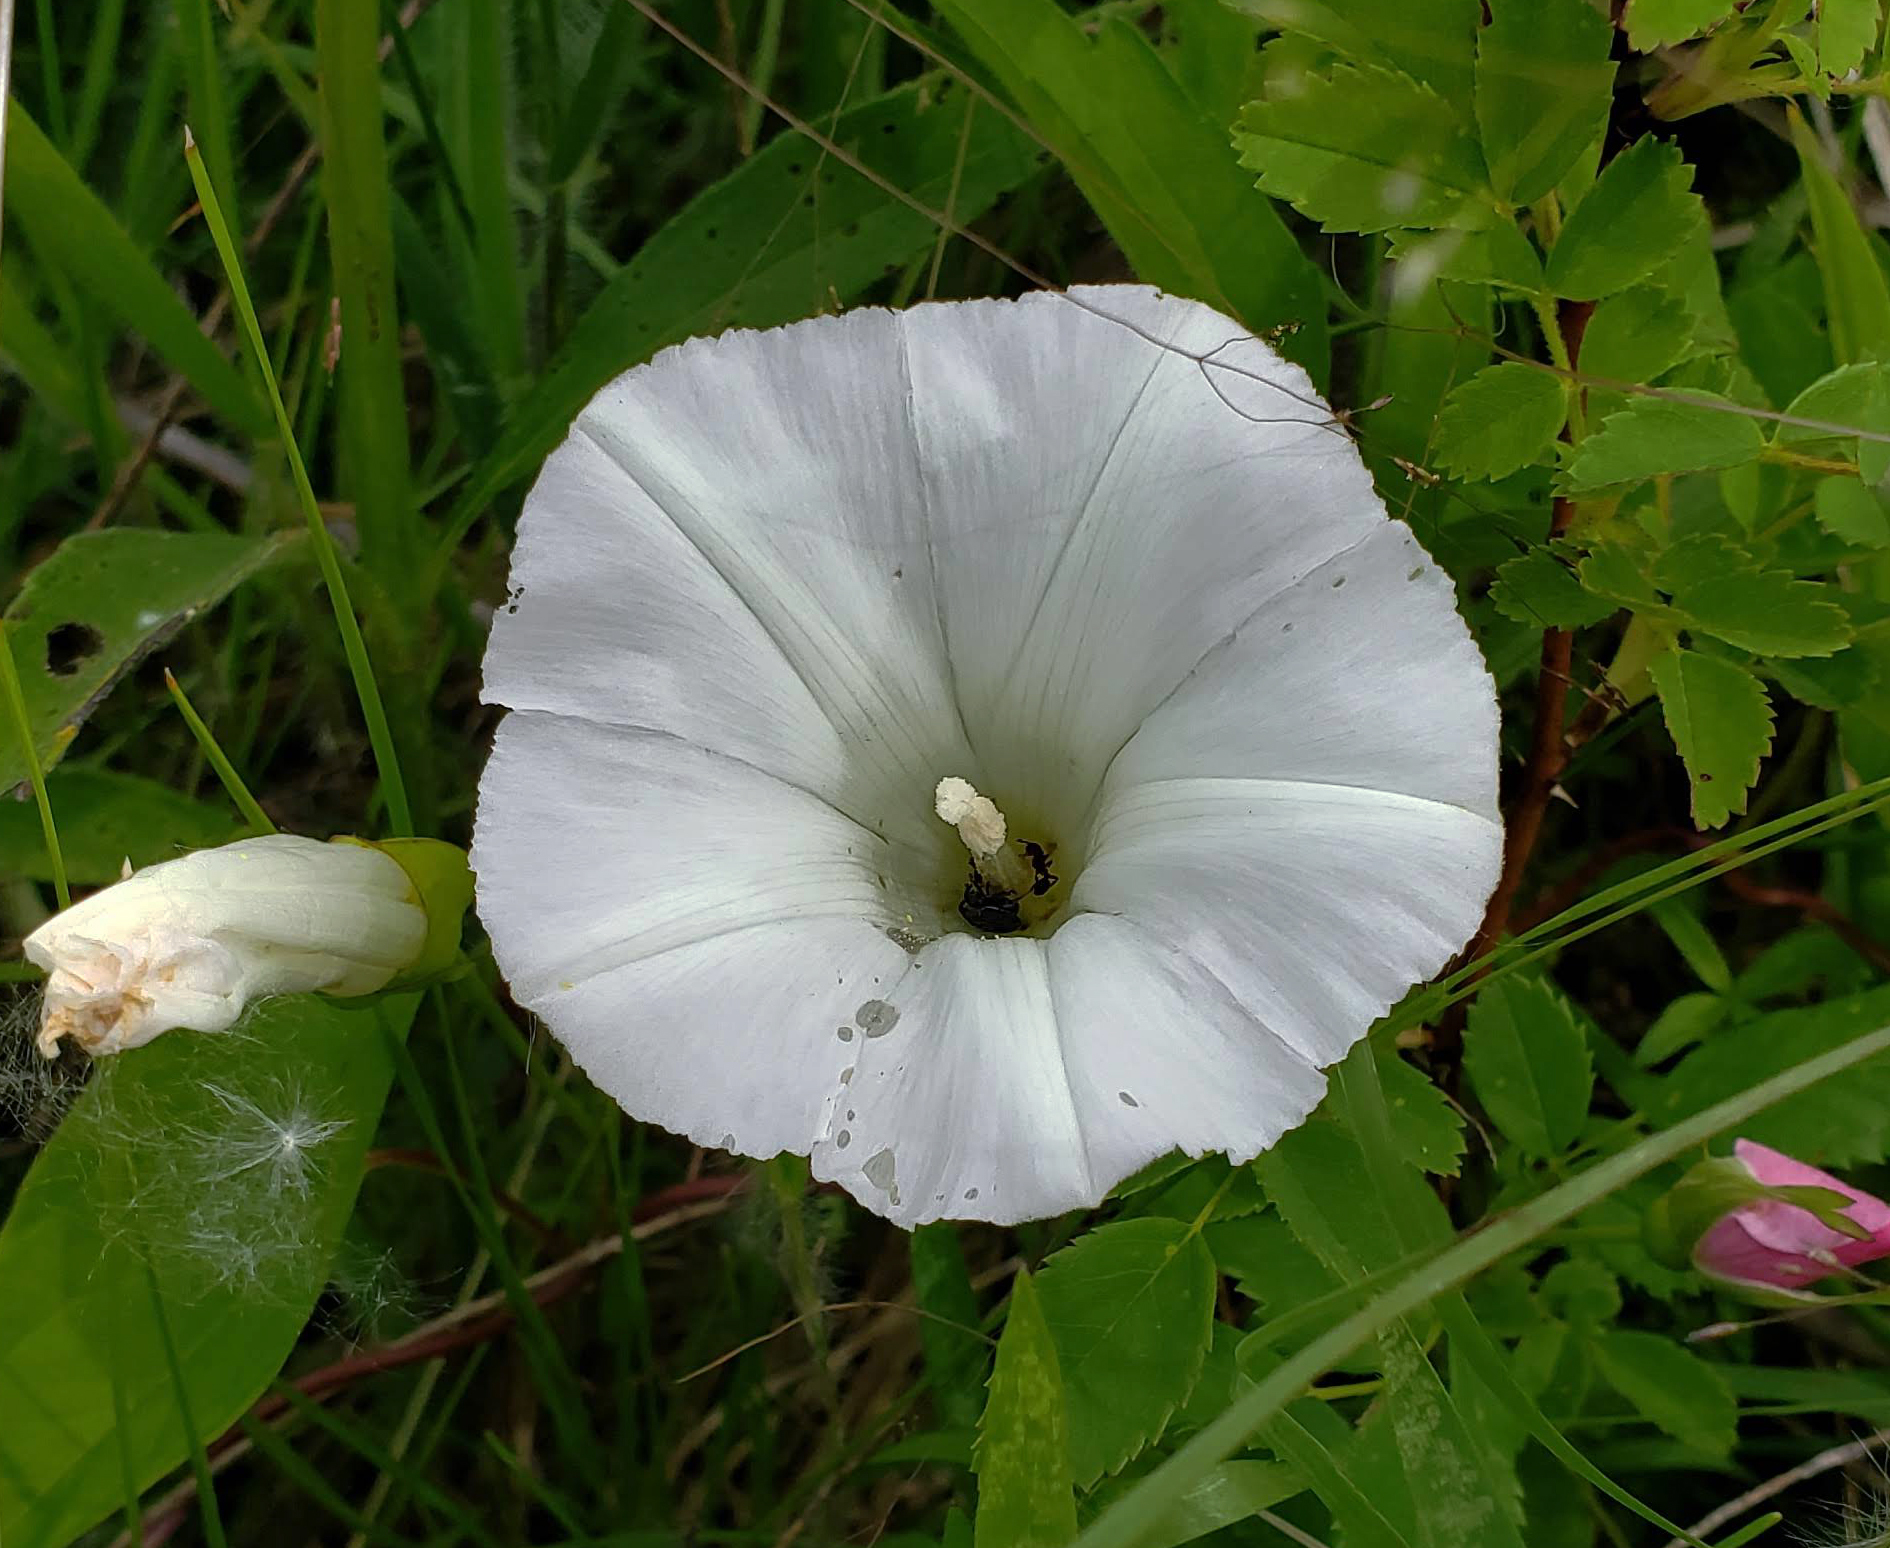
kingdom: Plantae
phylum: Tracheophyta
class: Magnoliopsida
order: Solanales
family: Convolvulaceae
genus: Calystegia
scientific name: Calystegia sepium
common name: Hedge bindweed
